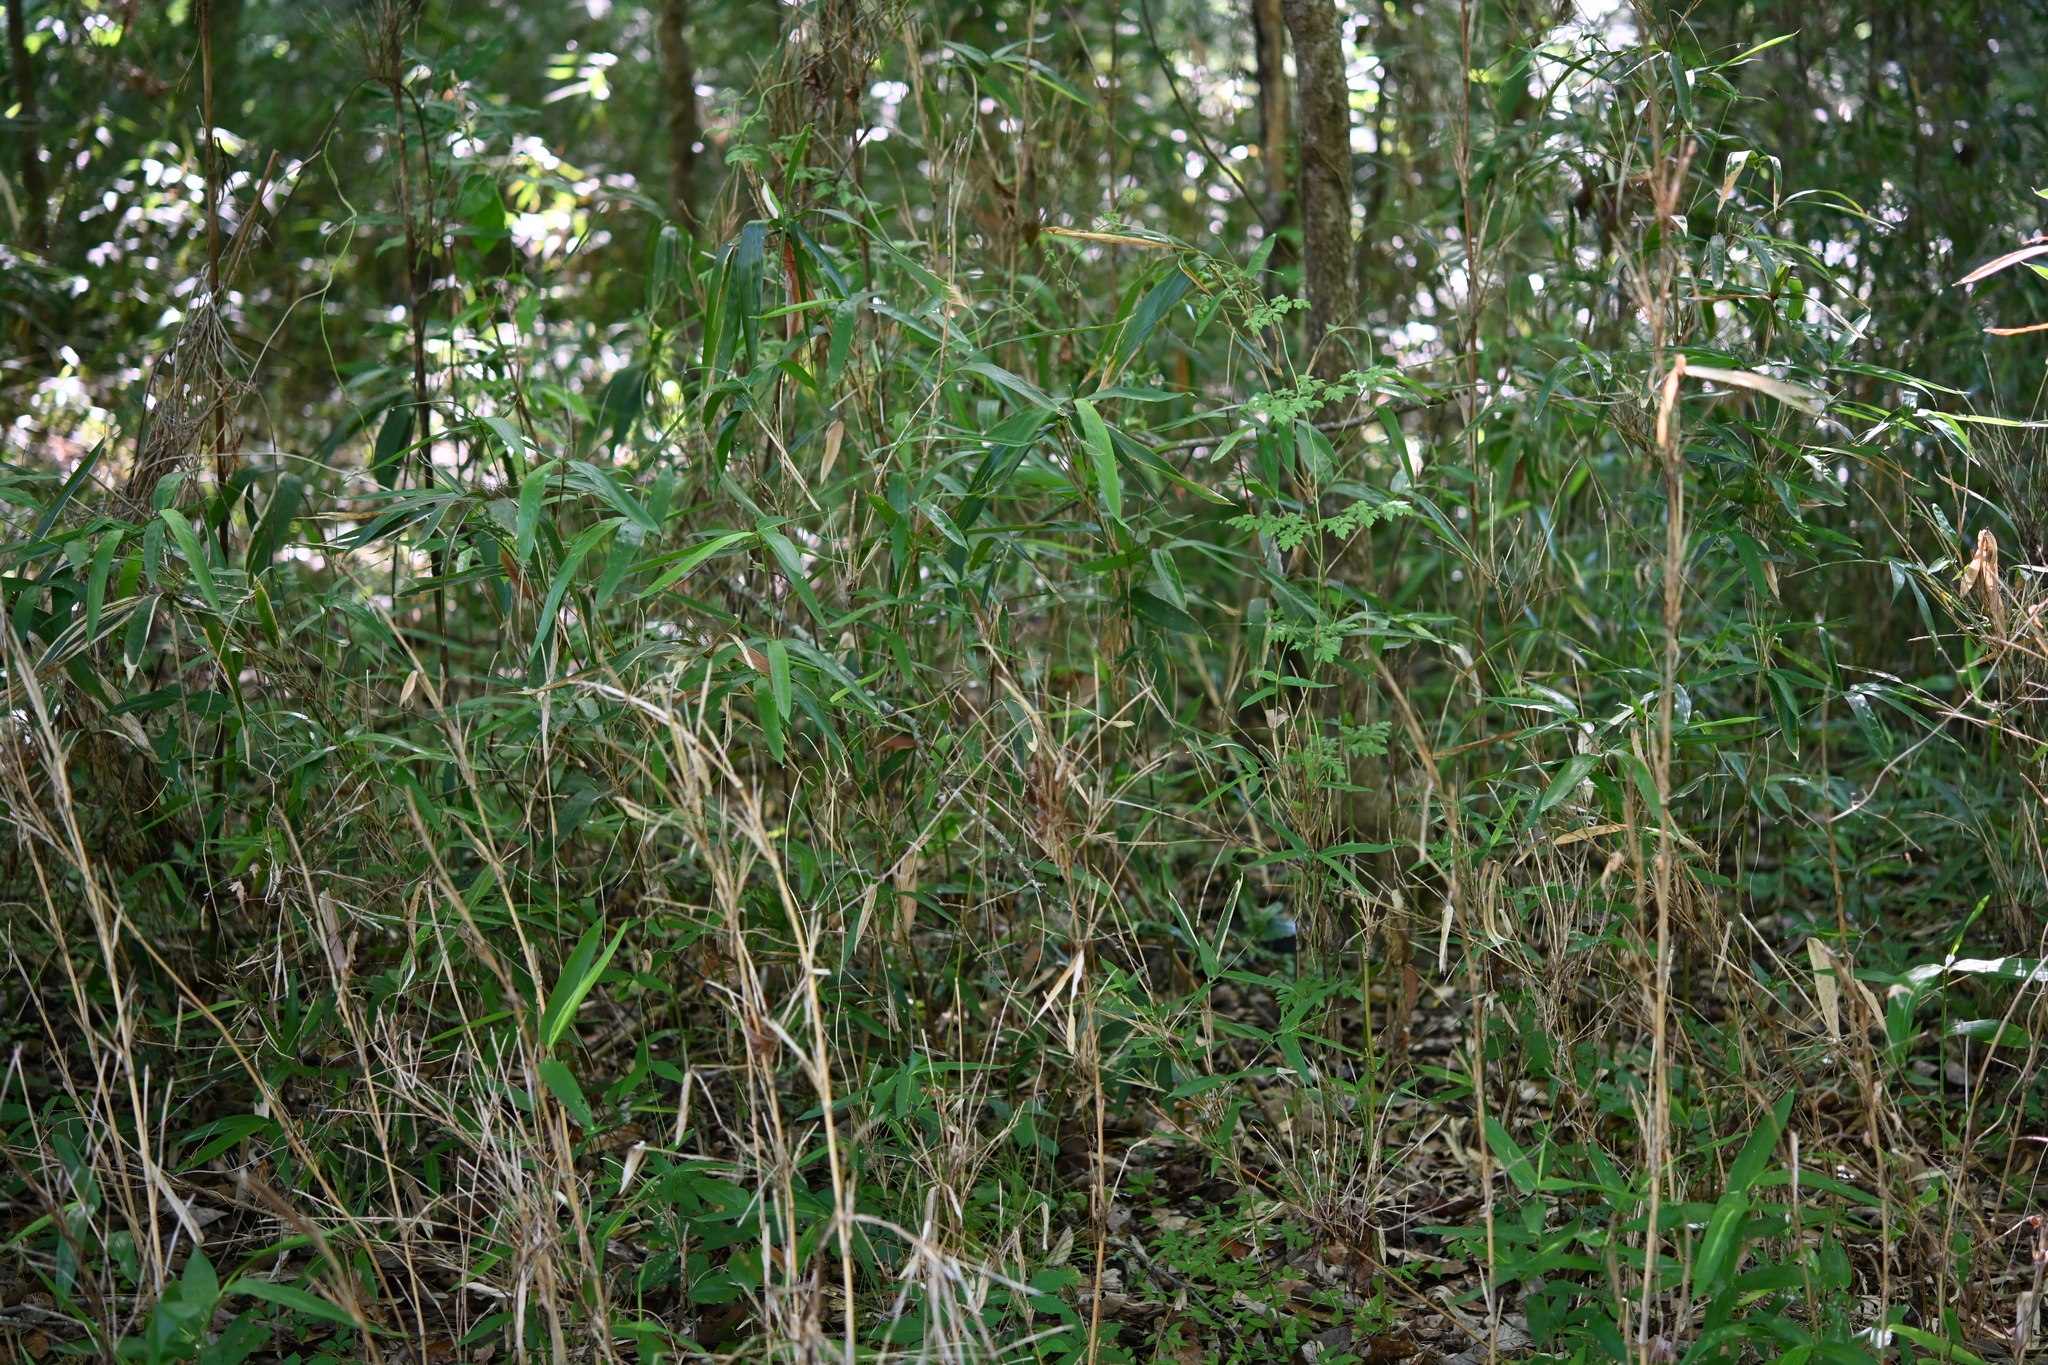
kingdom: Plantae
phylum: Tracheophyta
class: Liliopsida
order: Poales
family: Poaceae
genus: Arundinaria
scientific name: Arundinaria gigantea
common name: Giant cane
